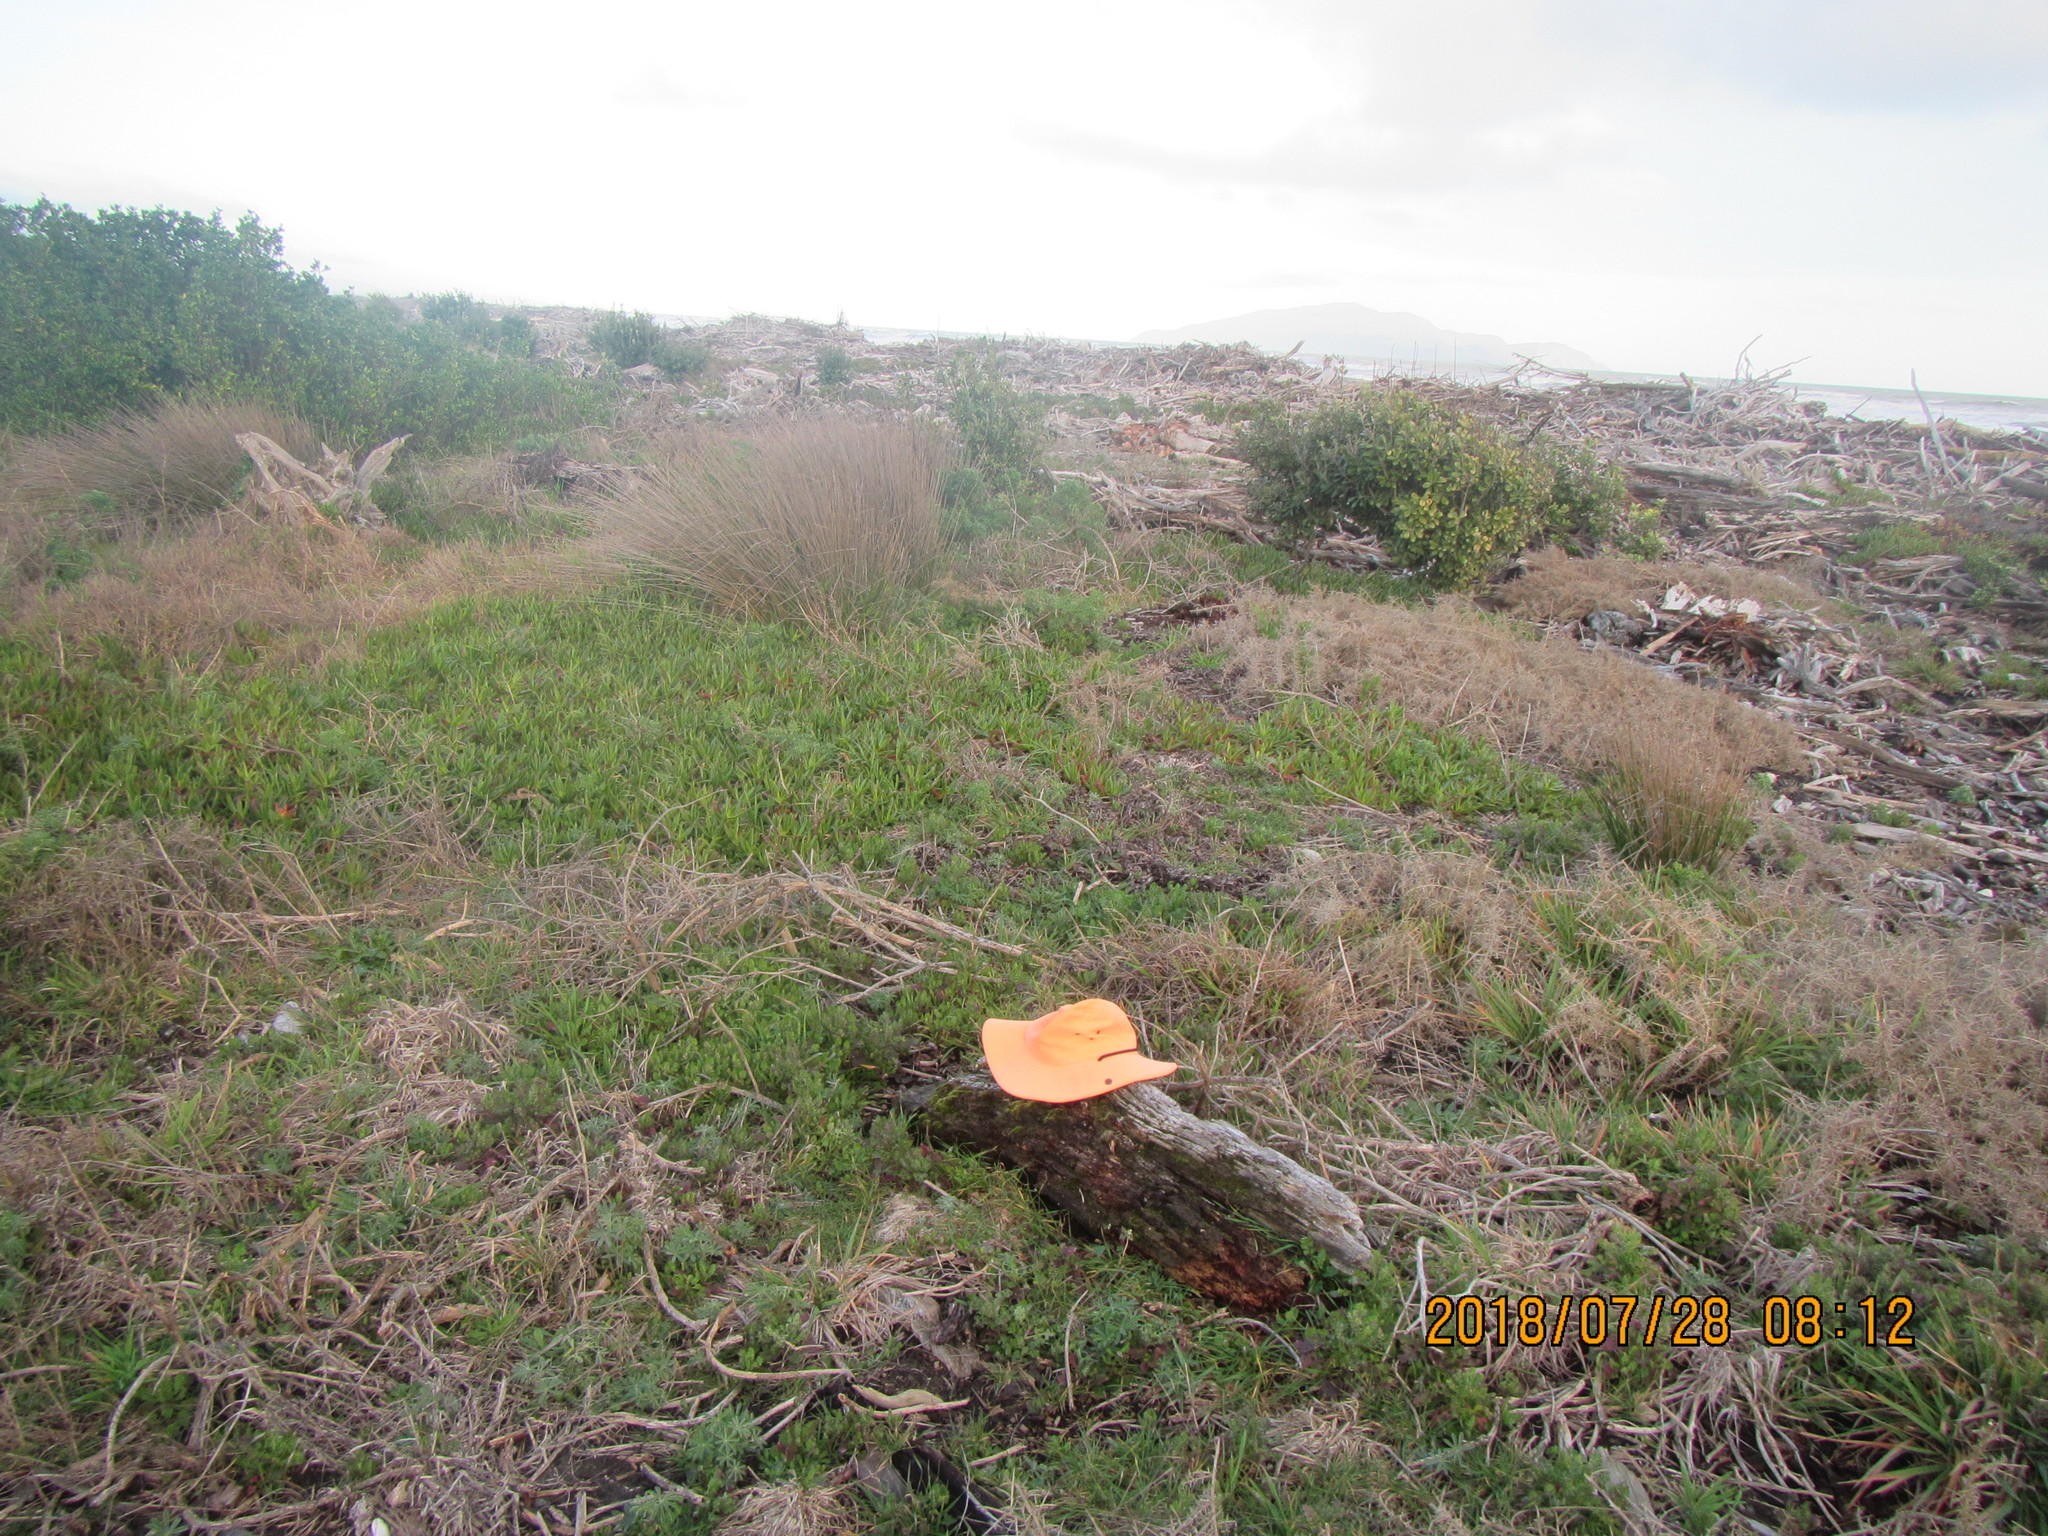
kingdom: Animalia
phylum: Arthropoda
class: Malacostraca
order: Isopoda
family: Porcellionidae
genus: Porcellio
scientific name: Porcellio scaber
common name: Common rough woodlouse
